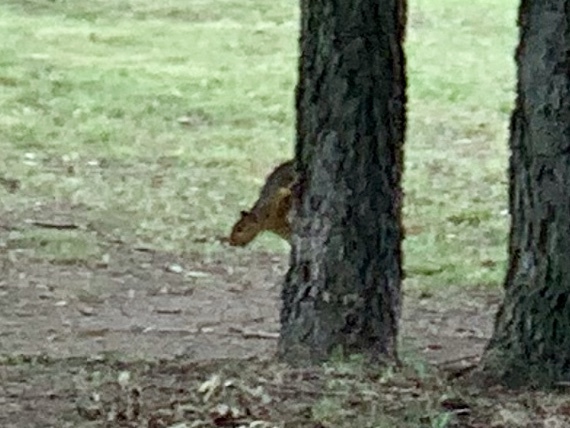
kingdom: Animalia
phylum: Chordata
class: Mammalia
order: Rodentia
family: Sciuridae
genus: Sciurus
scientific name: Sciurus niger
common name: Fox squirrel
